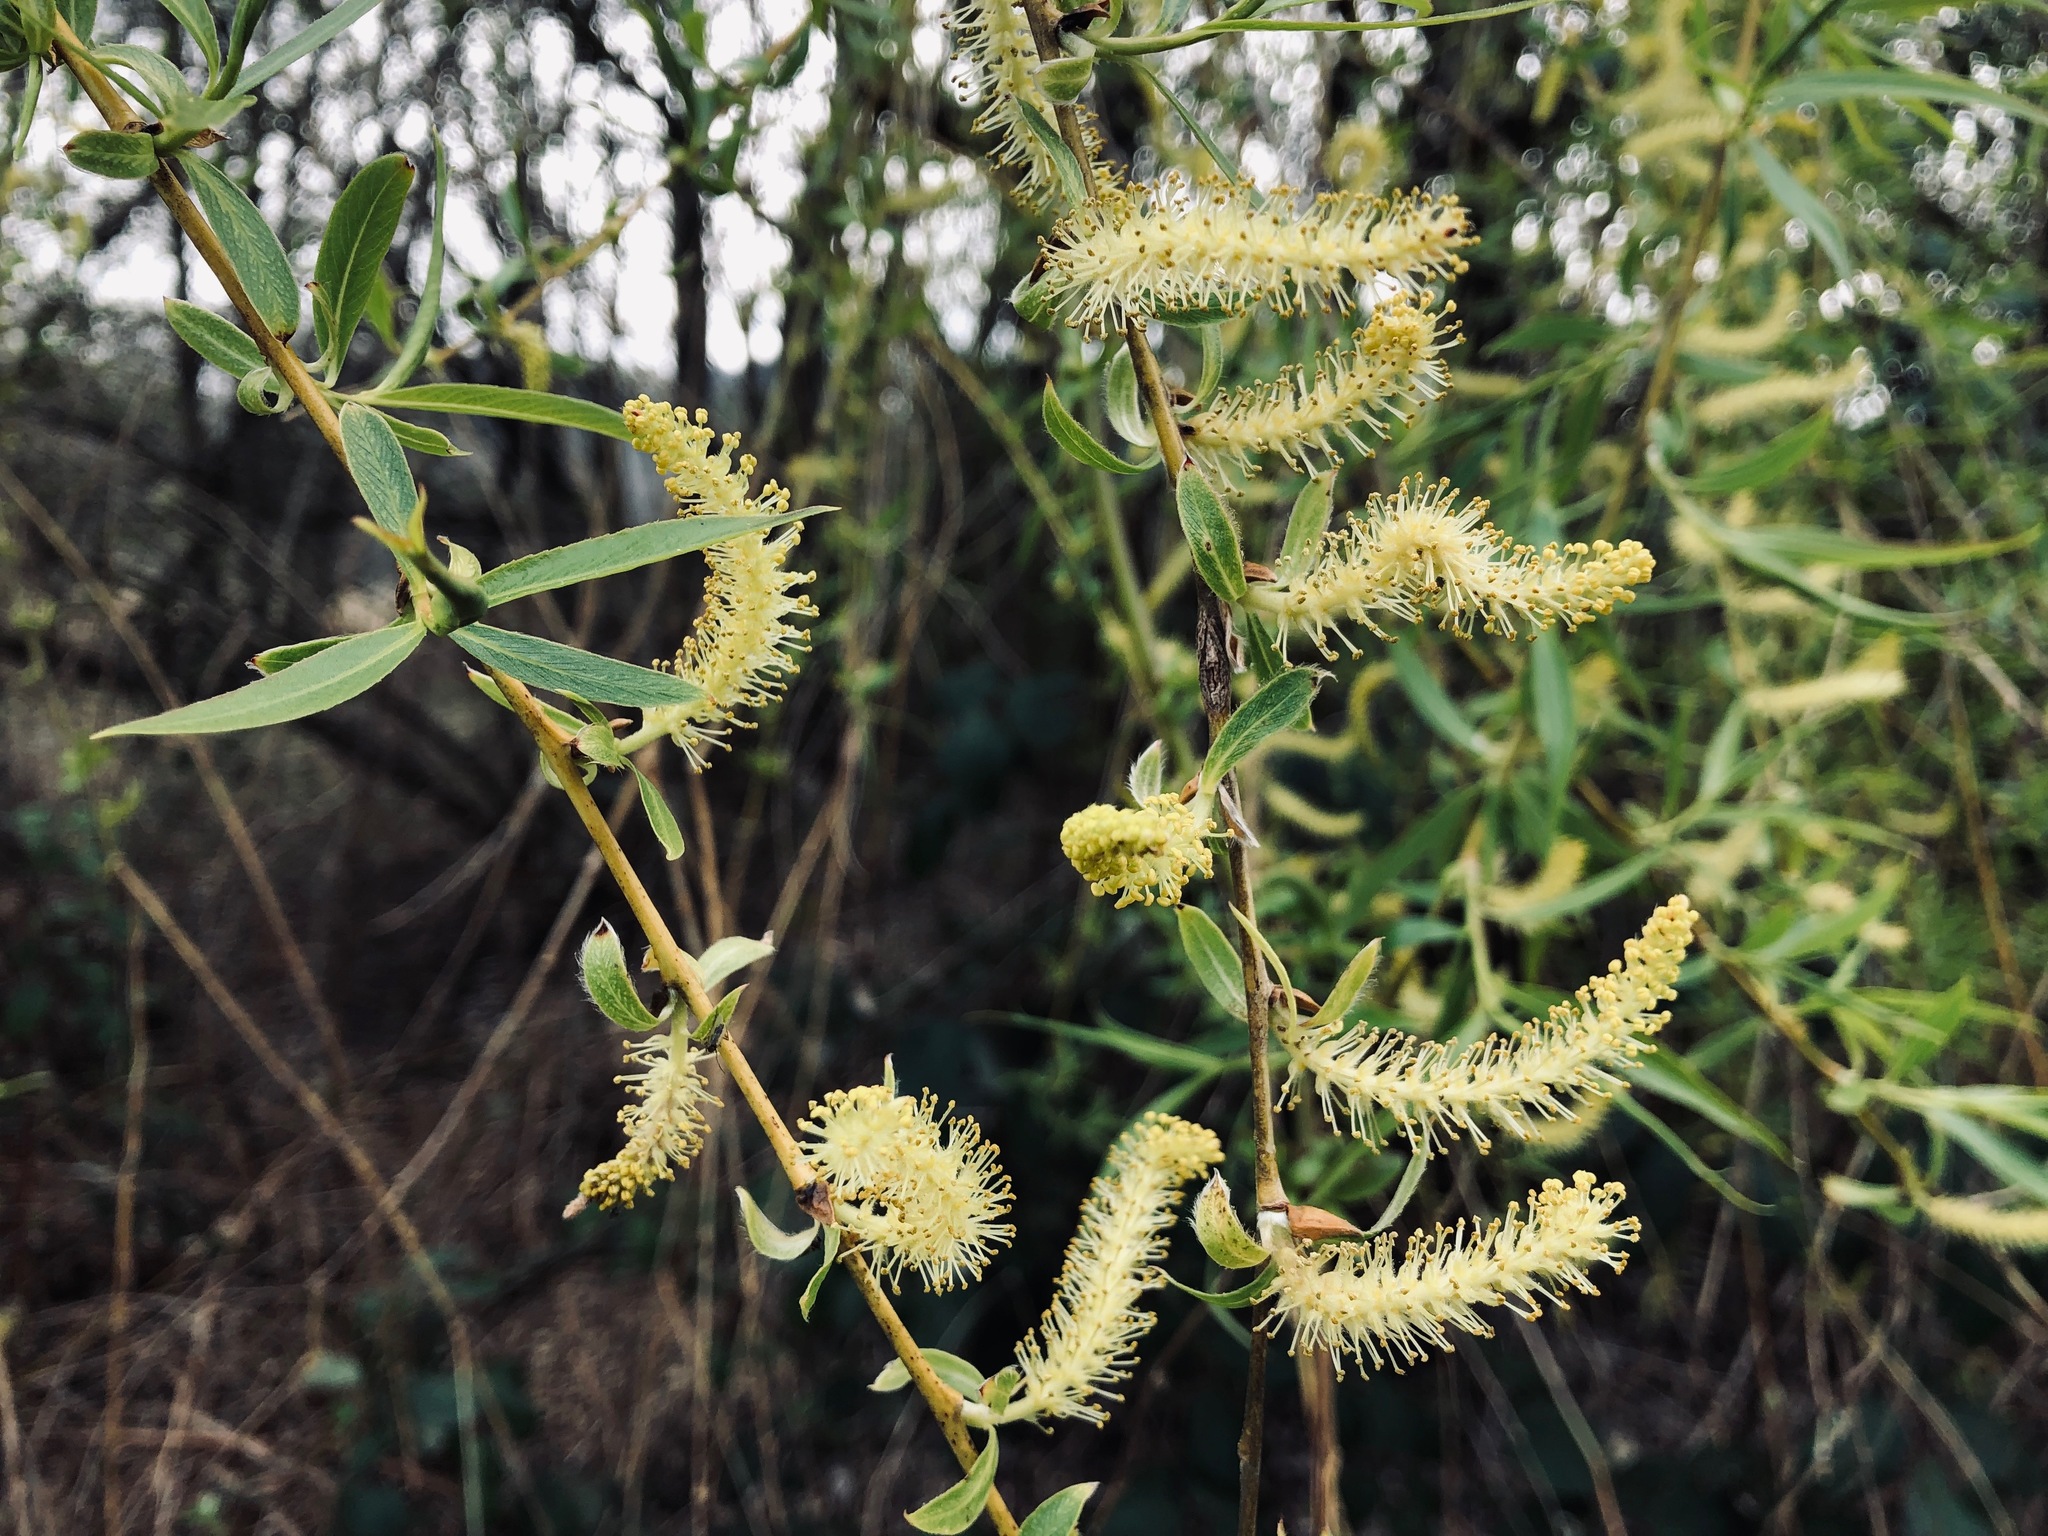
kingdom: Plantae
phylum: Tracheophyta
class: Magnoliopsida
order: Malpighiales
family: Salicaceae
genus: Salix
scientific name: Salix fragilis
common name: Crack willow
